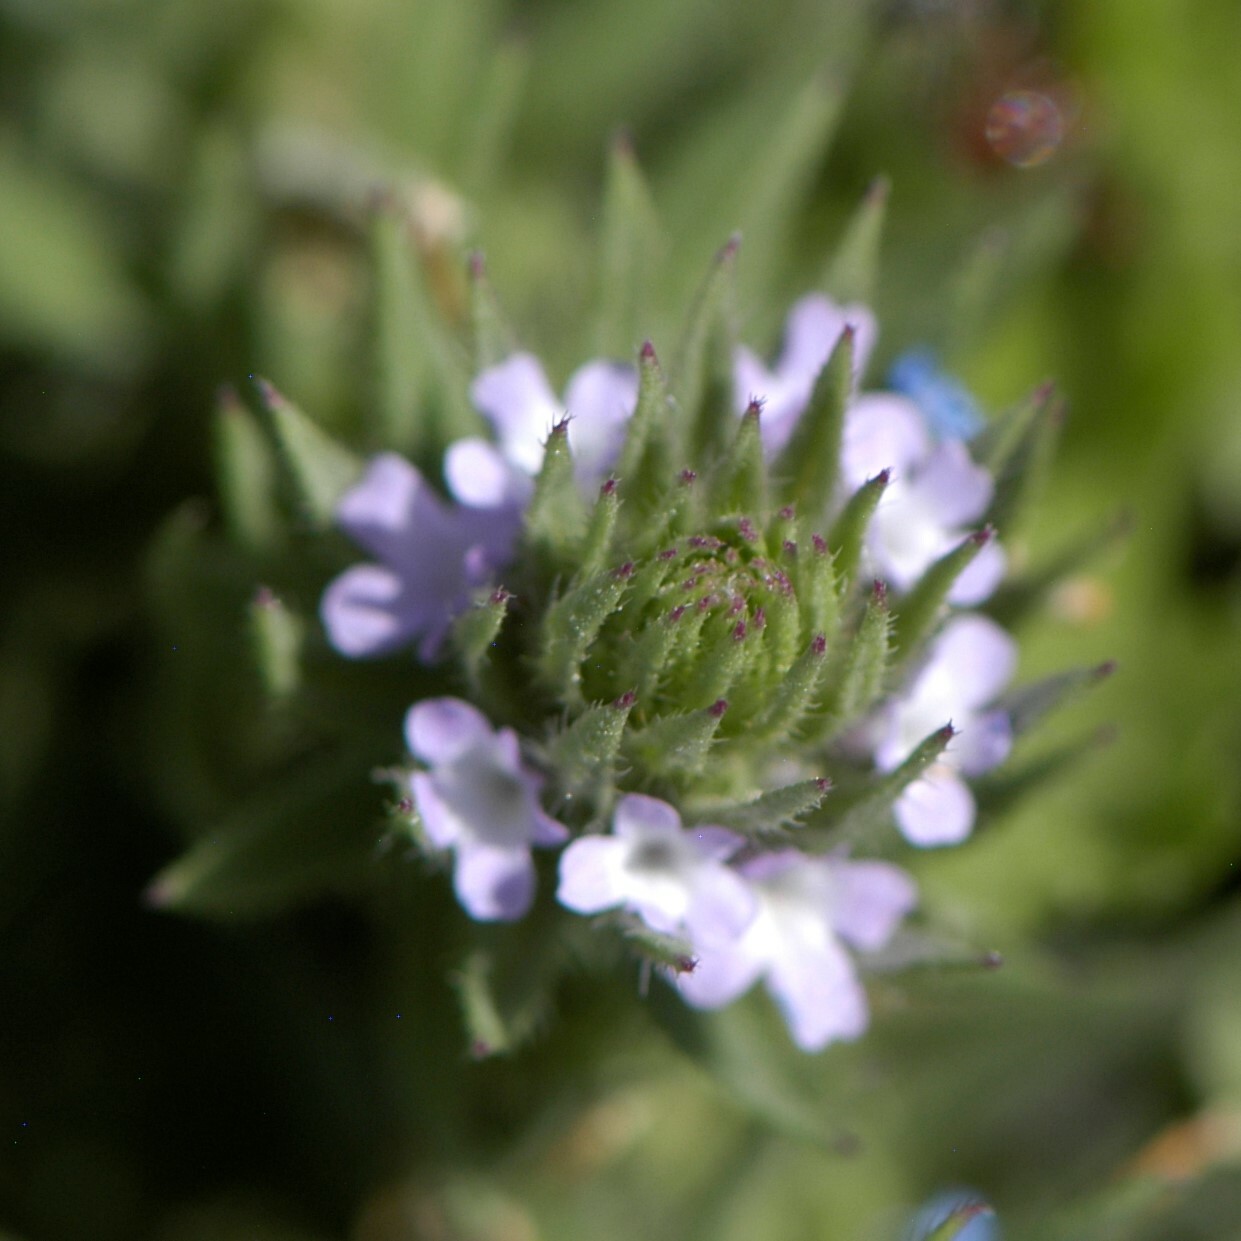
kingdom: Plantae
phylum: Tracheophyta
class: Magnoliopsida
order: Lamiales
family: Verbenaceae
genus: Verbena
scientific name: Verbena bracteata
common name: Bracted vervain
